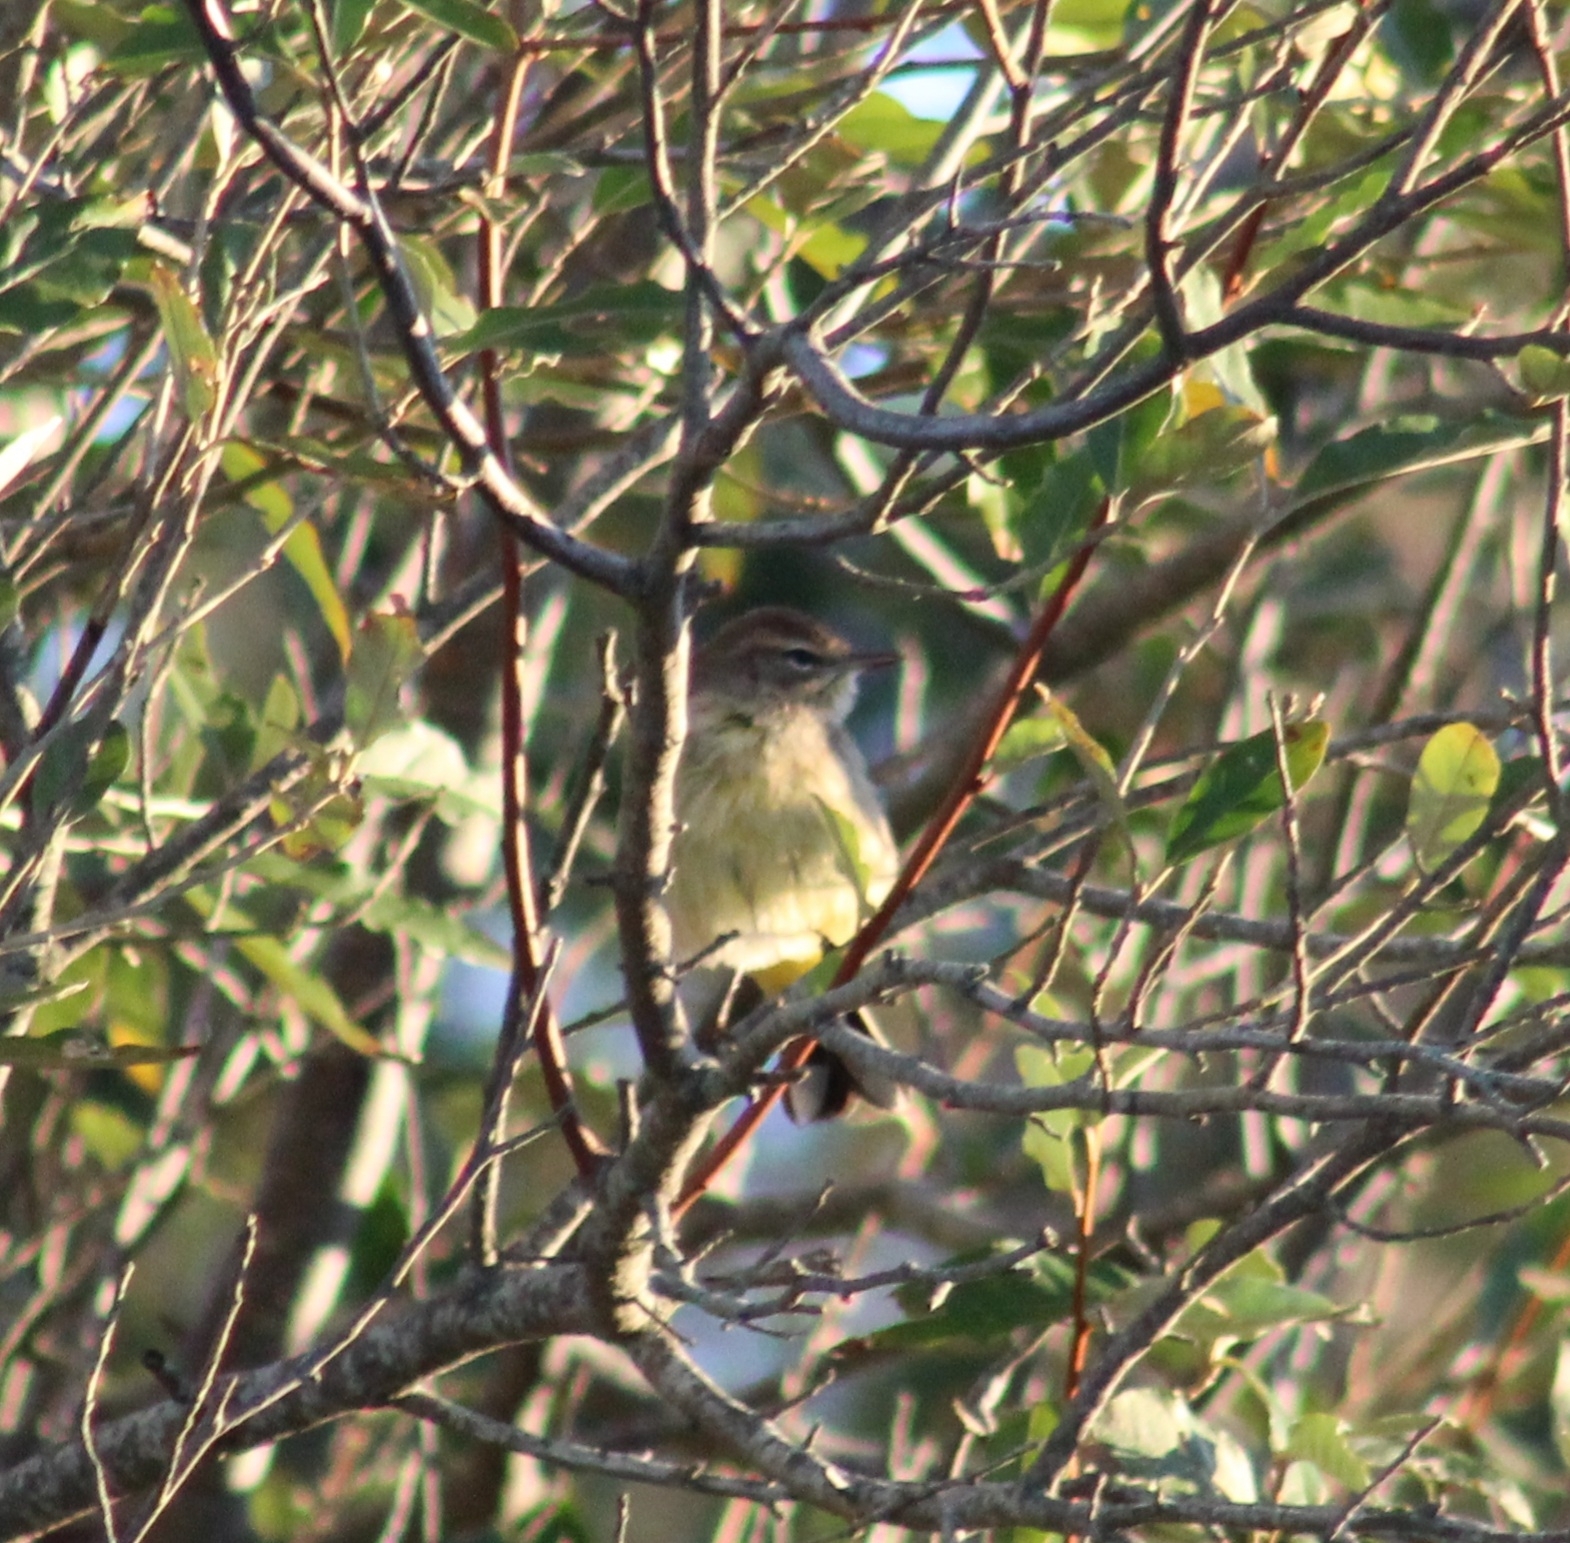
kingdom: Animalia
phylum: Chordata
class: Aves
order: Passeriformes
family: Parulidae
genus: Setophaga
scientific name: Setophaga palmarum
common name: Palm warbler
